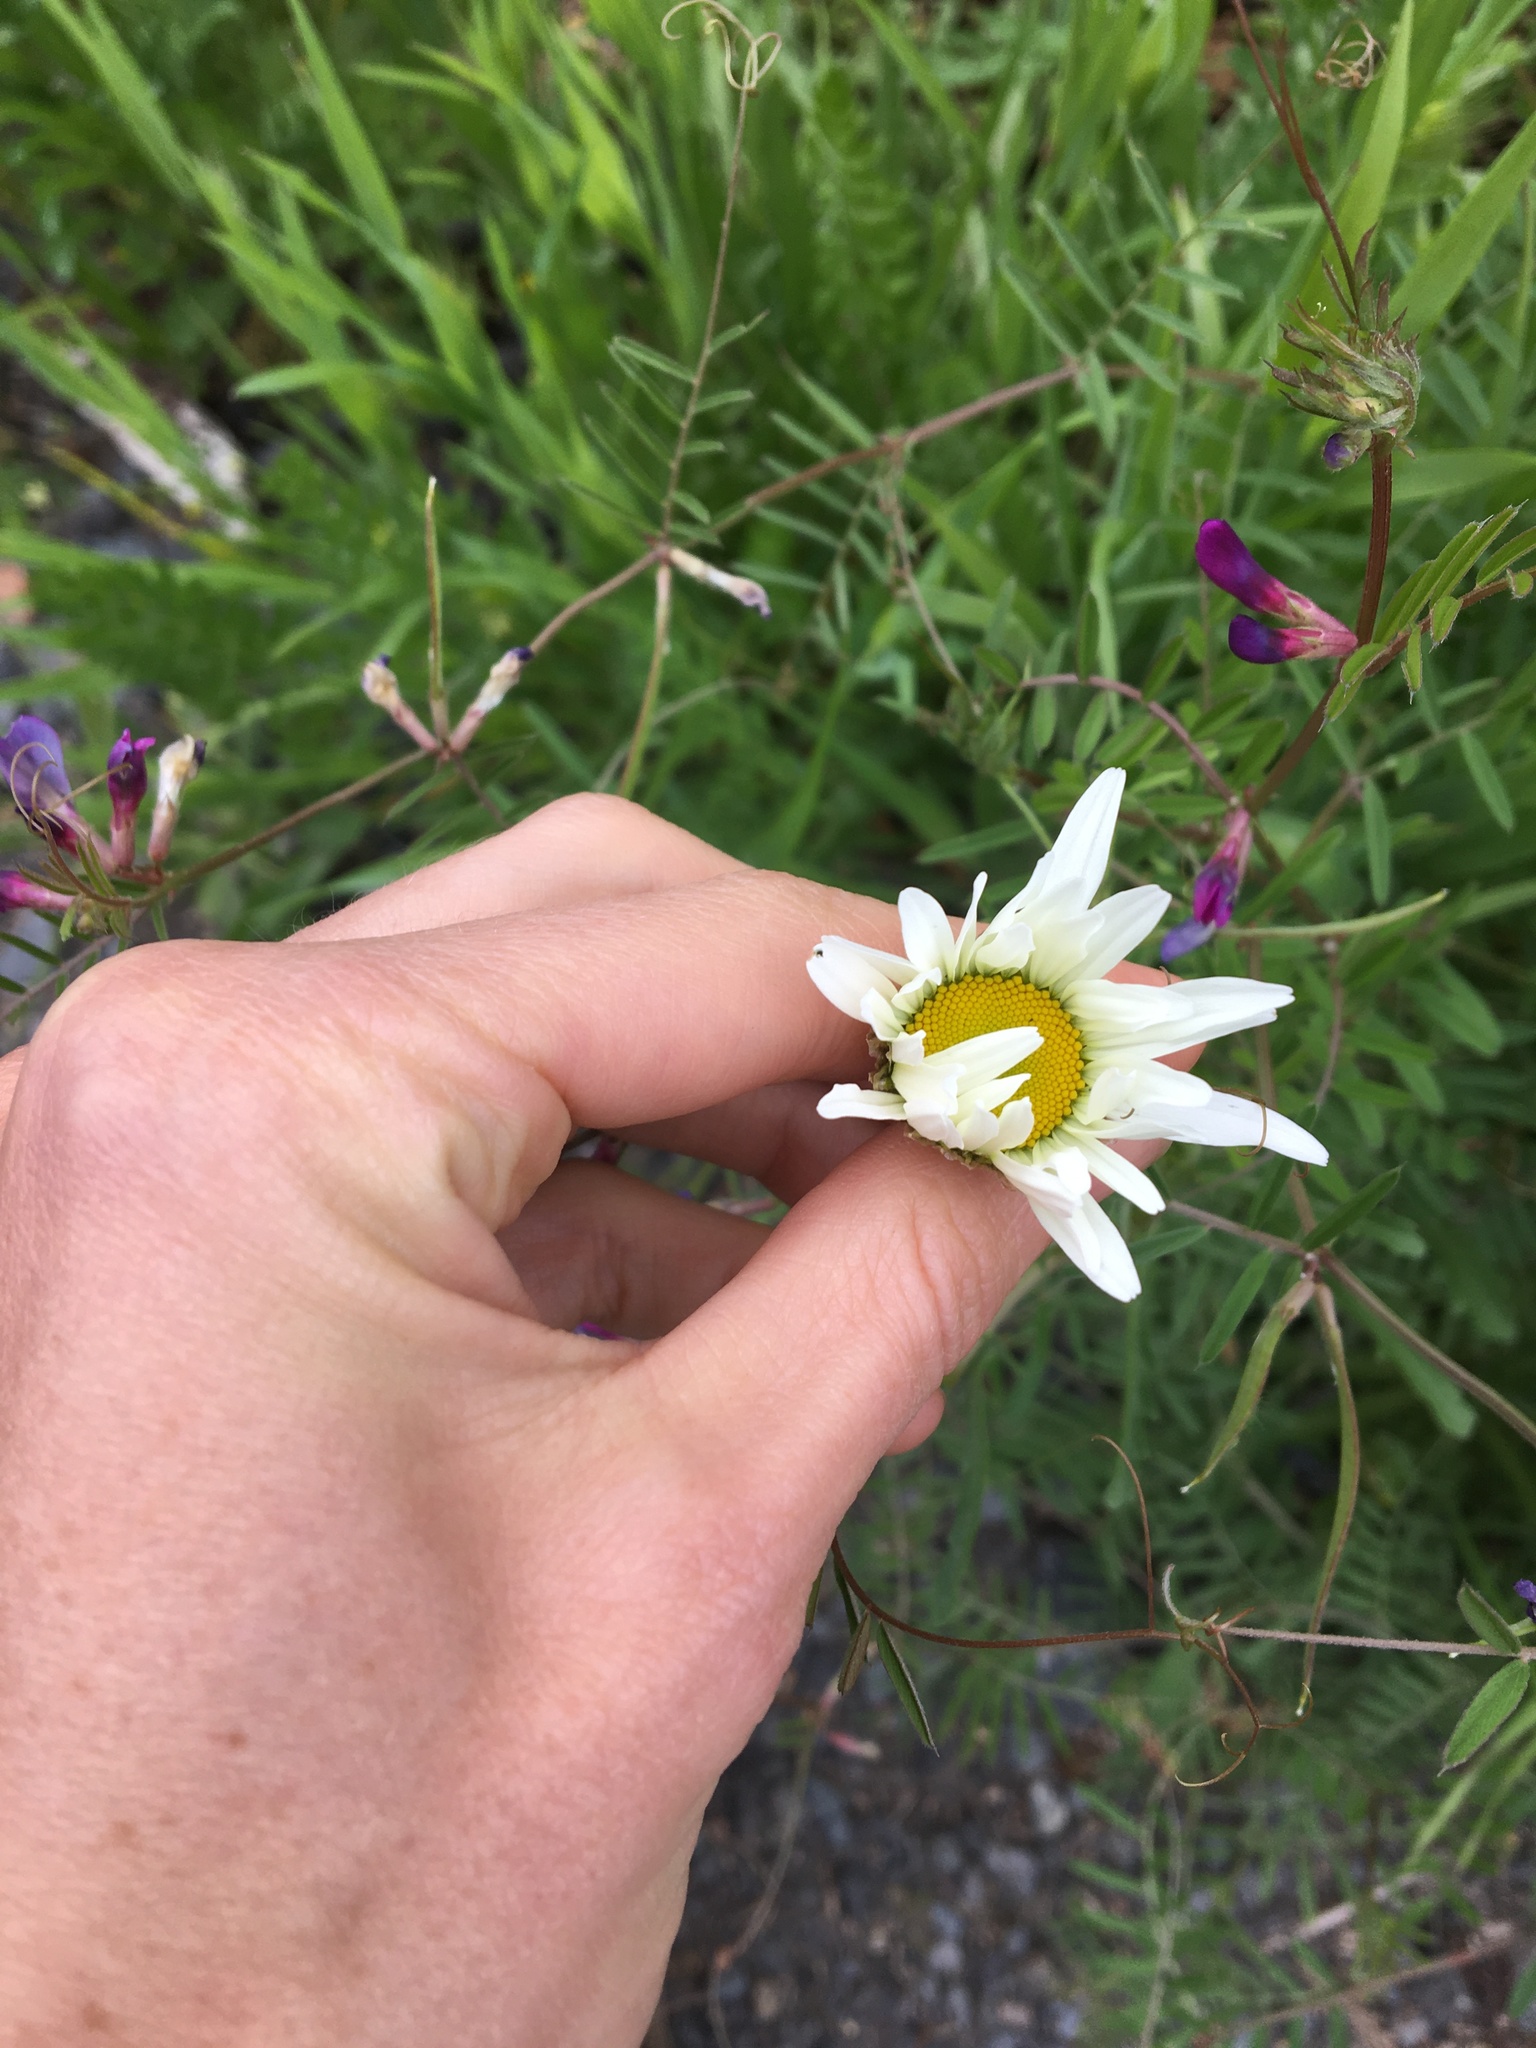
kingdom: Plantae
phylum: Tracheophyta
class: Magnoliopsida
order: Asterales
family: Asteraceae
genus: Leucanthemum
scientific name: Leucanthemum vulgare
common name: Oxeye daisy
